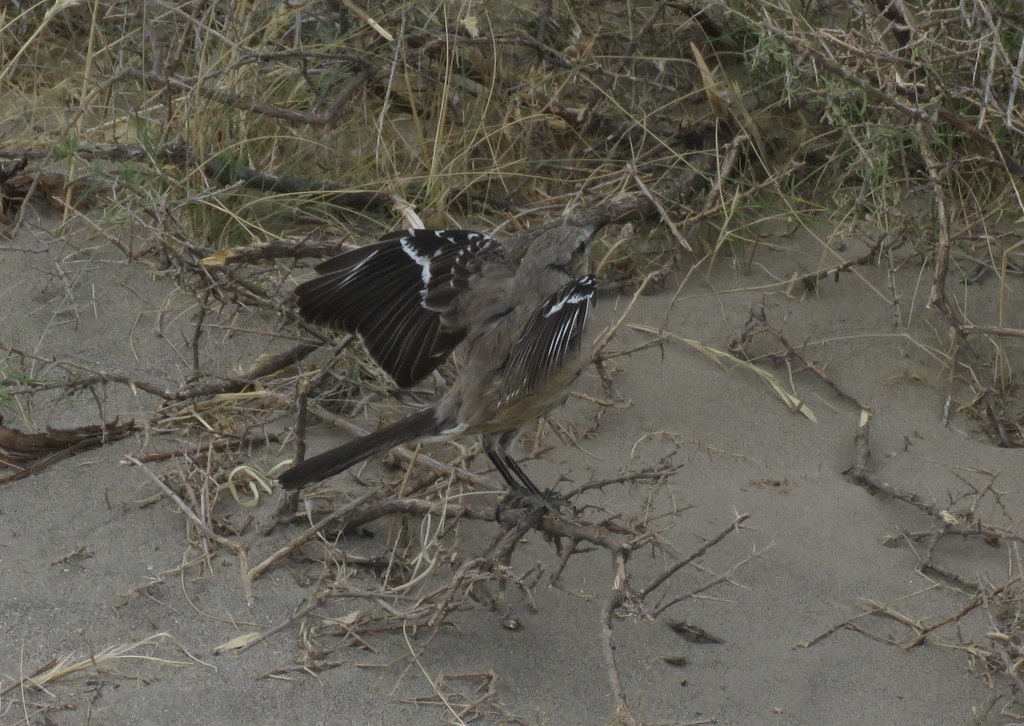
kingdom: Animalia
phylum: Chordata
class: Aves
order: Passeriformes
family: Mimidae
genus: Mimus
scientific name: Mimus patagonicus
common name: Patagonian mockingbird
